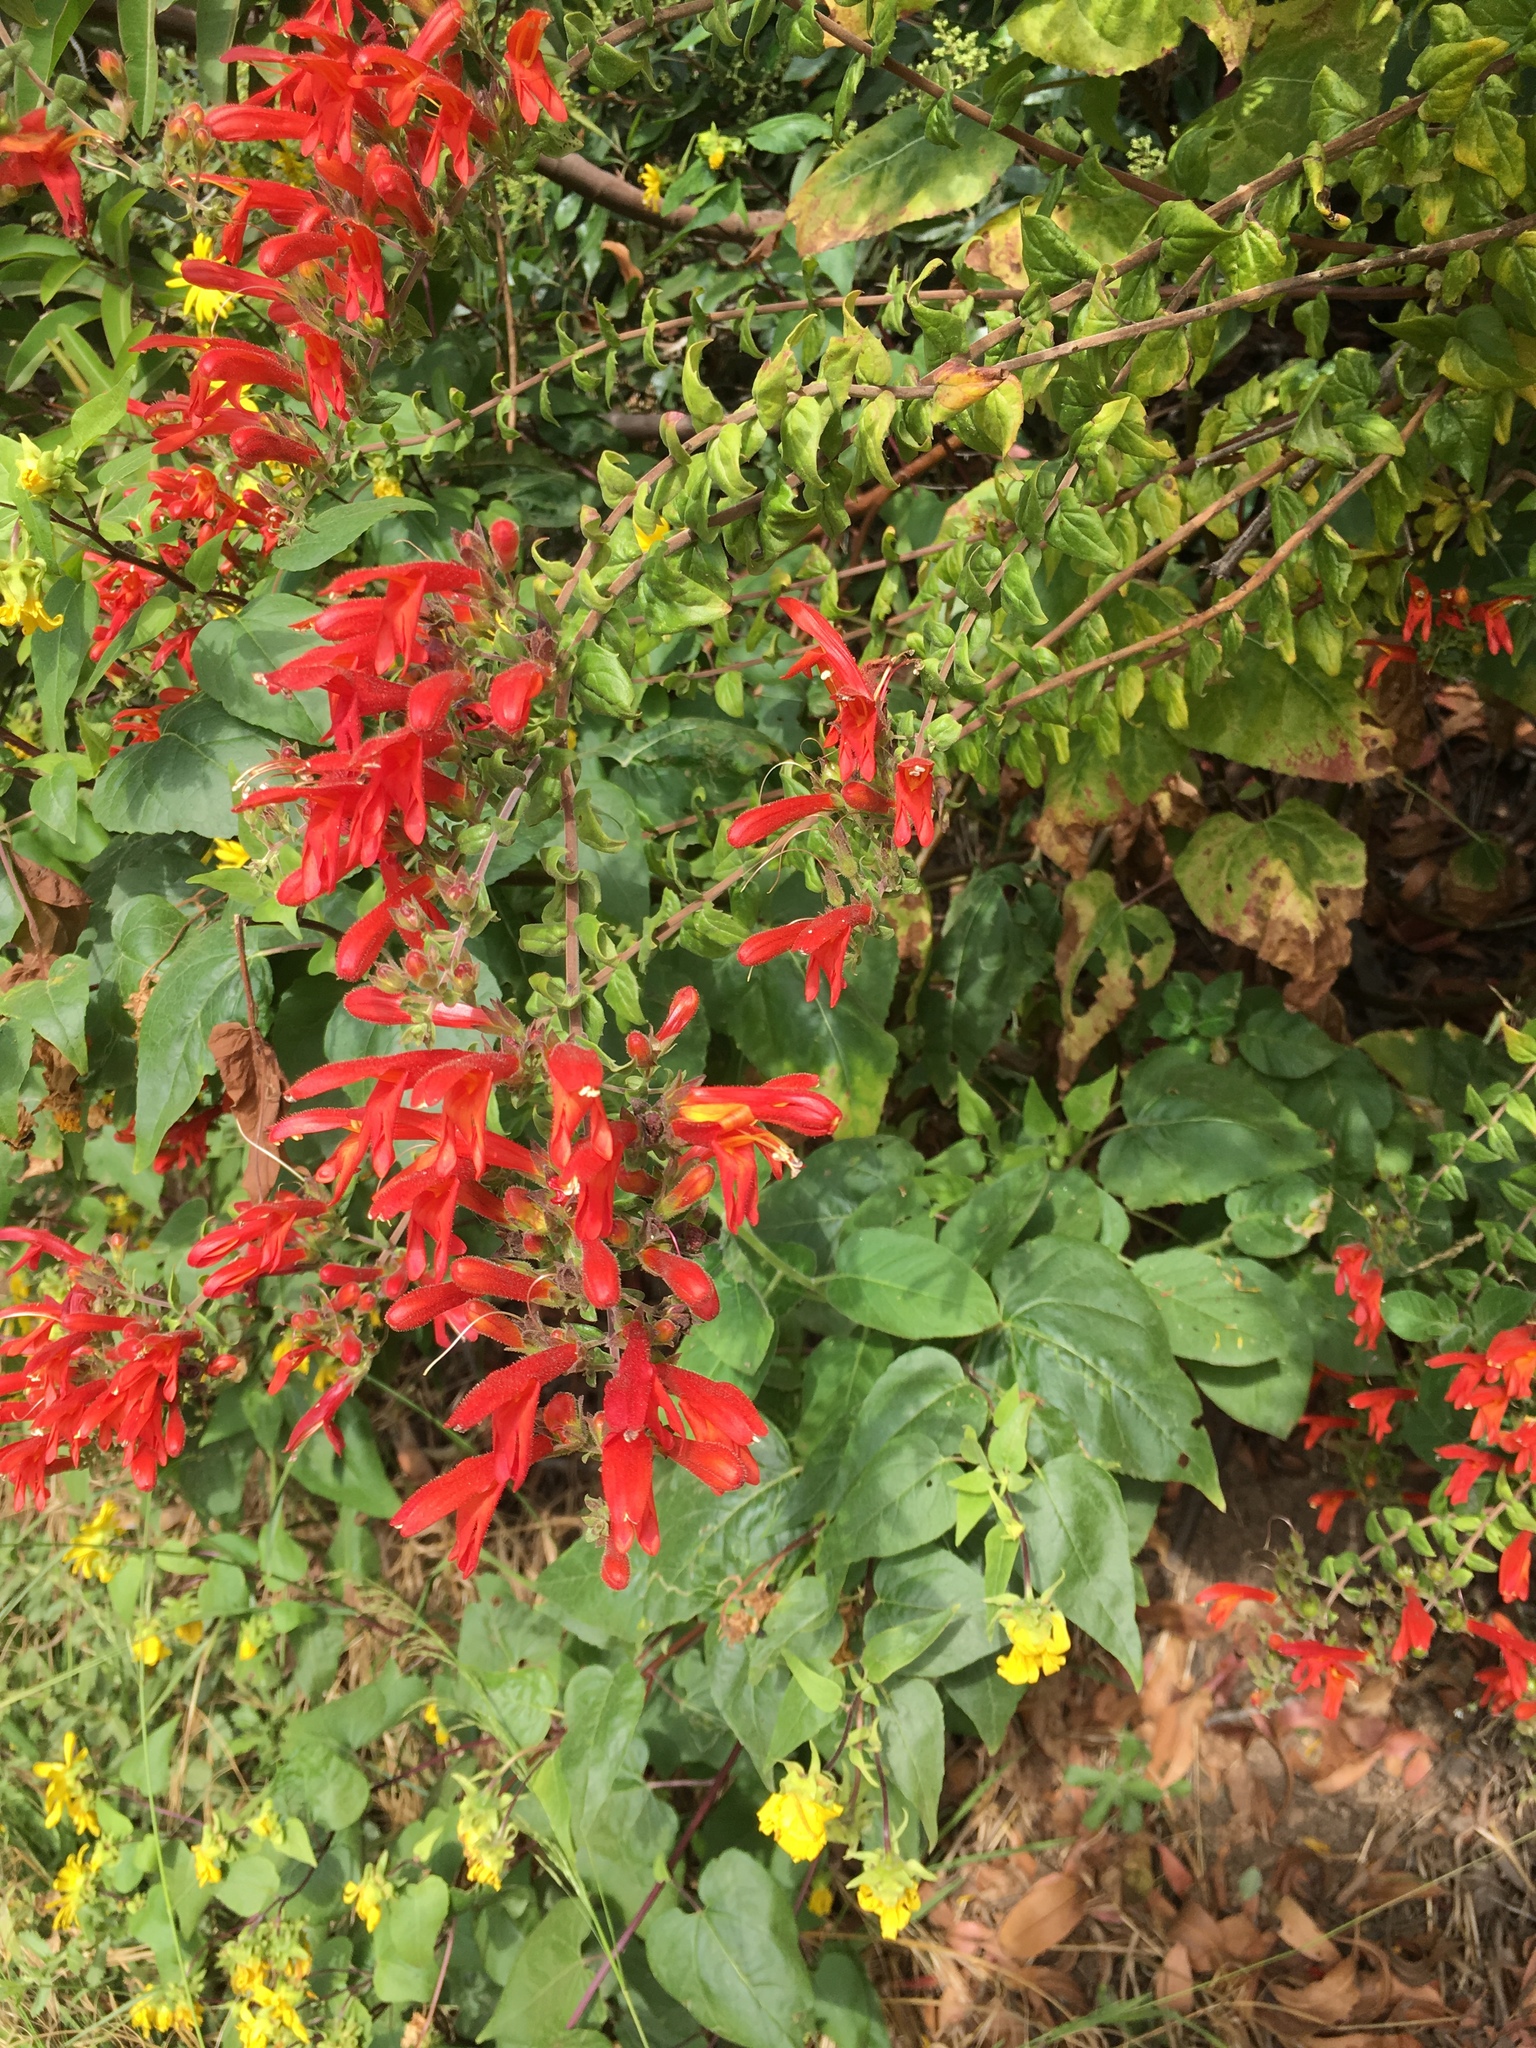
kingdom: Plantae
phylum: Tracheophyta
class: Magnoliopsida
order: Lamiales
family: Plantaginaceae
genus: Keckiella
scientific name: Keckiella cordifolia
